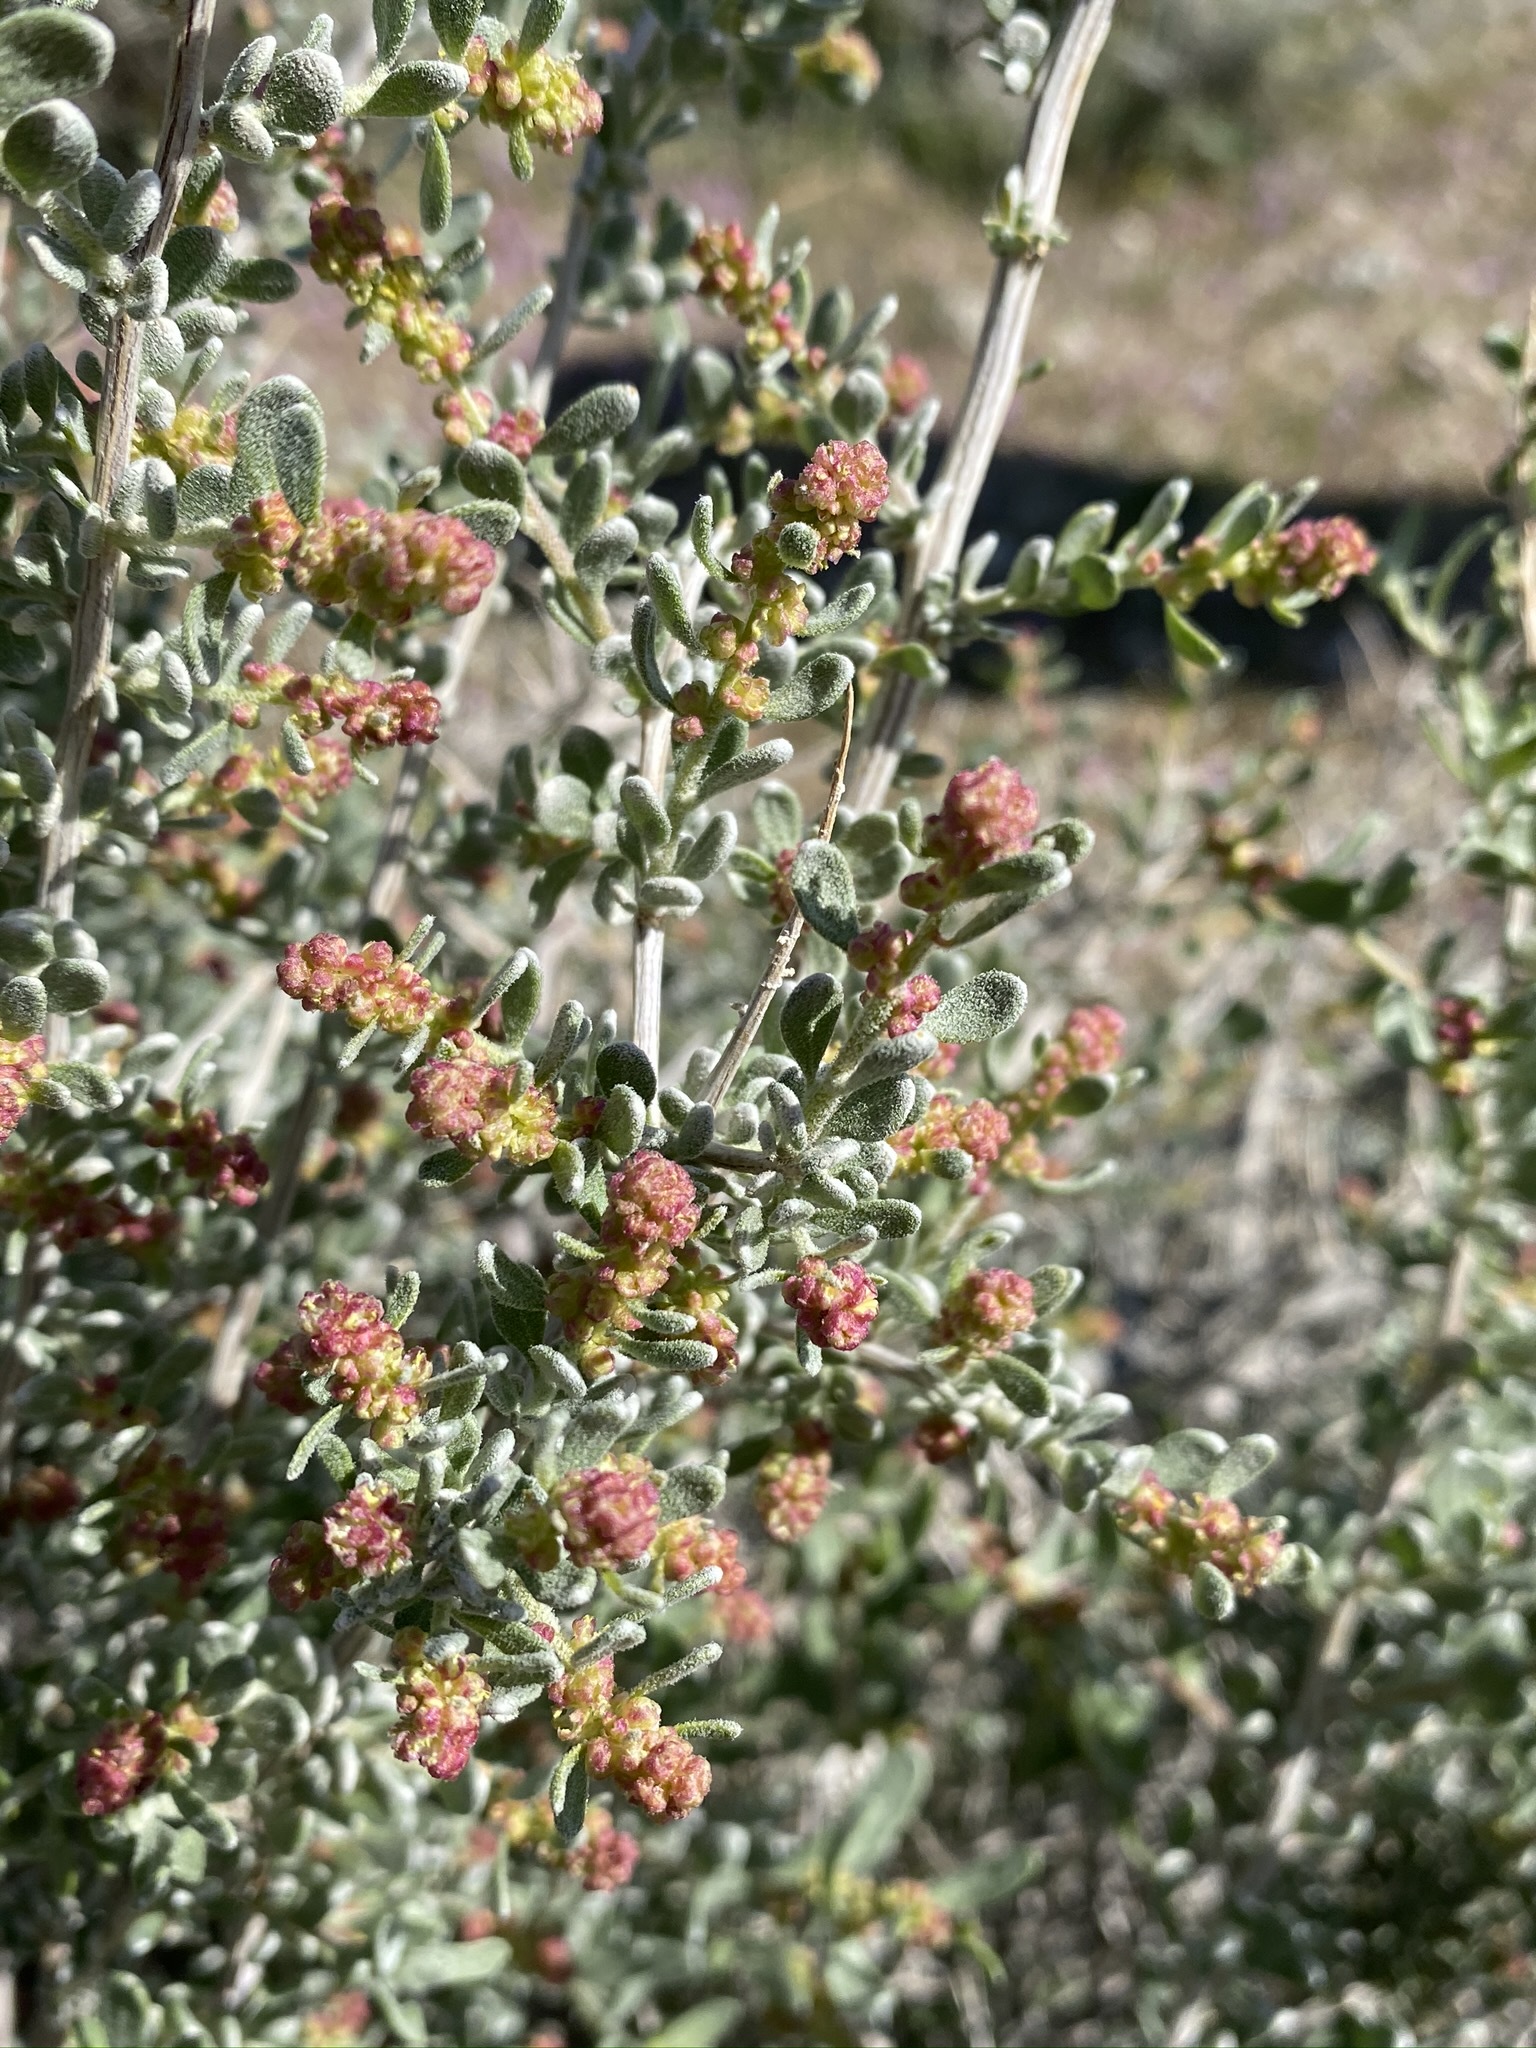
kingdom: Plantae
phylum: Tracheophyta
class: Magnoliopsida
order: Caryophyllales
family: Amaranthaceae
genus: Grayia
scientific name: Grayia spinosa
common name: Spiny hopsage
